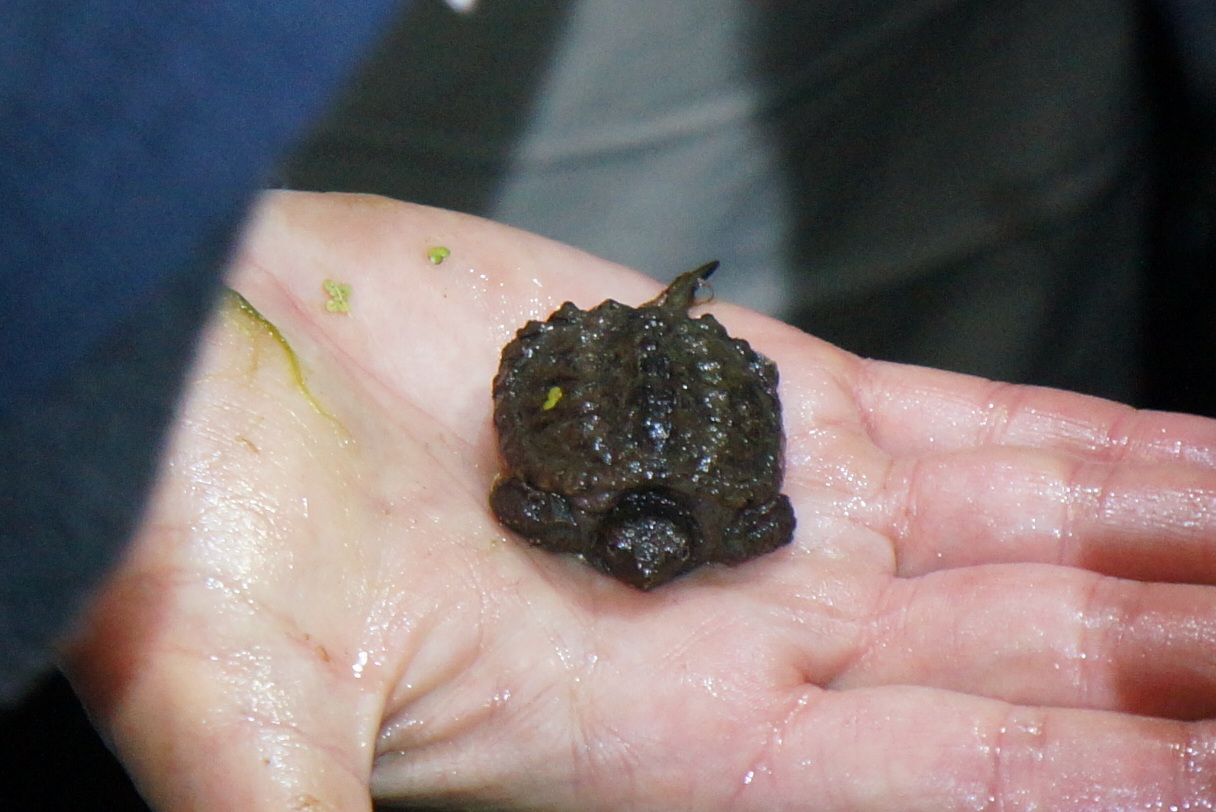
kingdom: Animalia
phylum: Chordata
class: Testudines
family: Chelydridae
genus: Chelydra
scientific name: Chelydra serpentina
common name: Common snapping turtle
